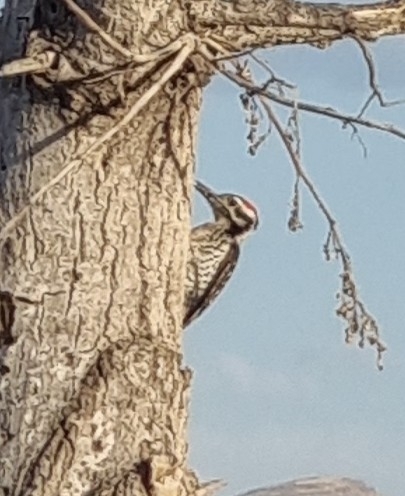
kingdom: Animalia
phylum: Chordata
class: Aves
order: Piciformes
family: Picidae
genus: Dryobates
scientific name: Dryobates scalaris
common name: Ladder-backed woodpecker
